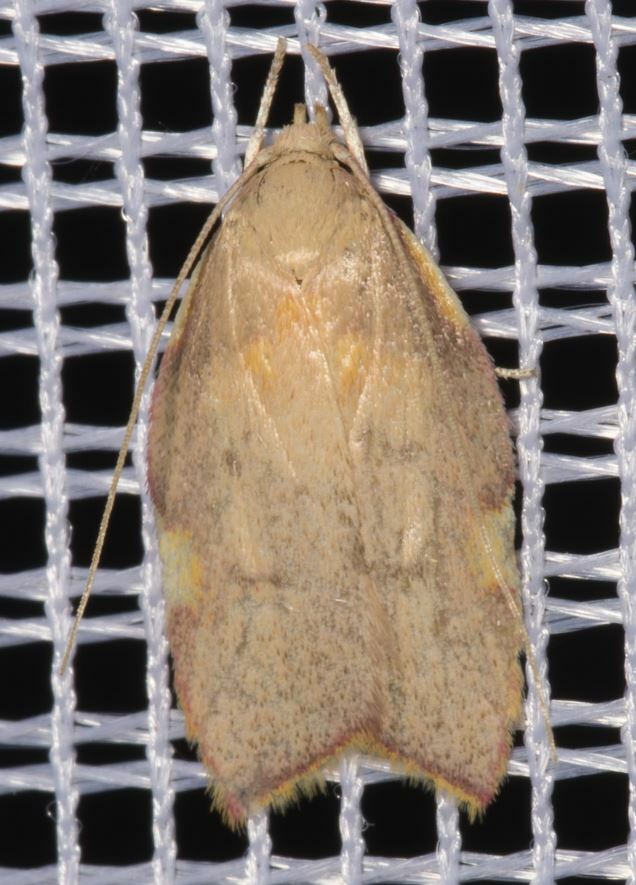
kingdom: Animalia
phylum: Arthropoda
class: Insecta
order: Lepidoptera
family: Peleopodidae
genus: Carcina
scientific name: Carcina quercana
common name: Moth
